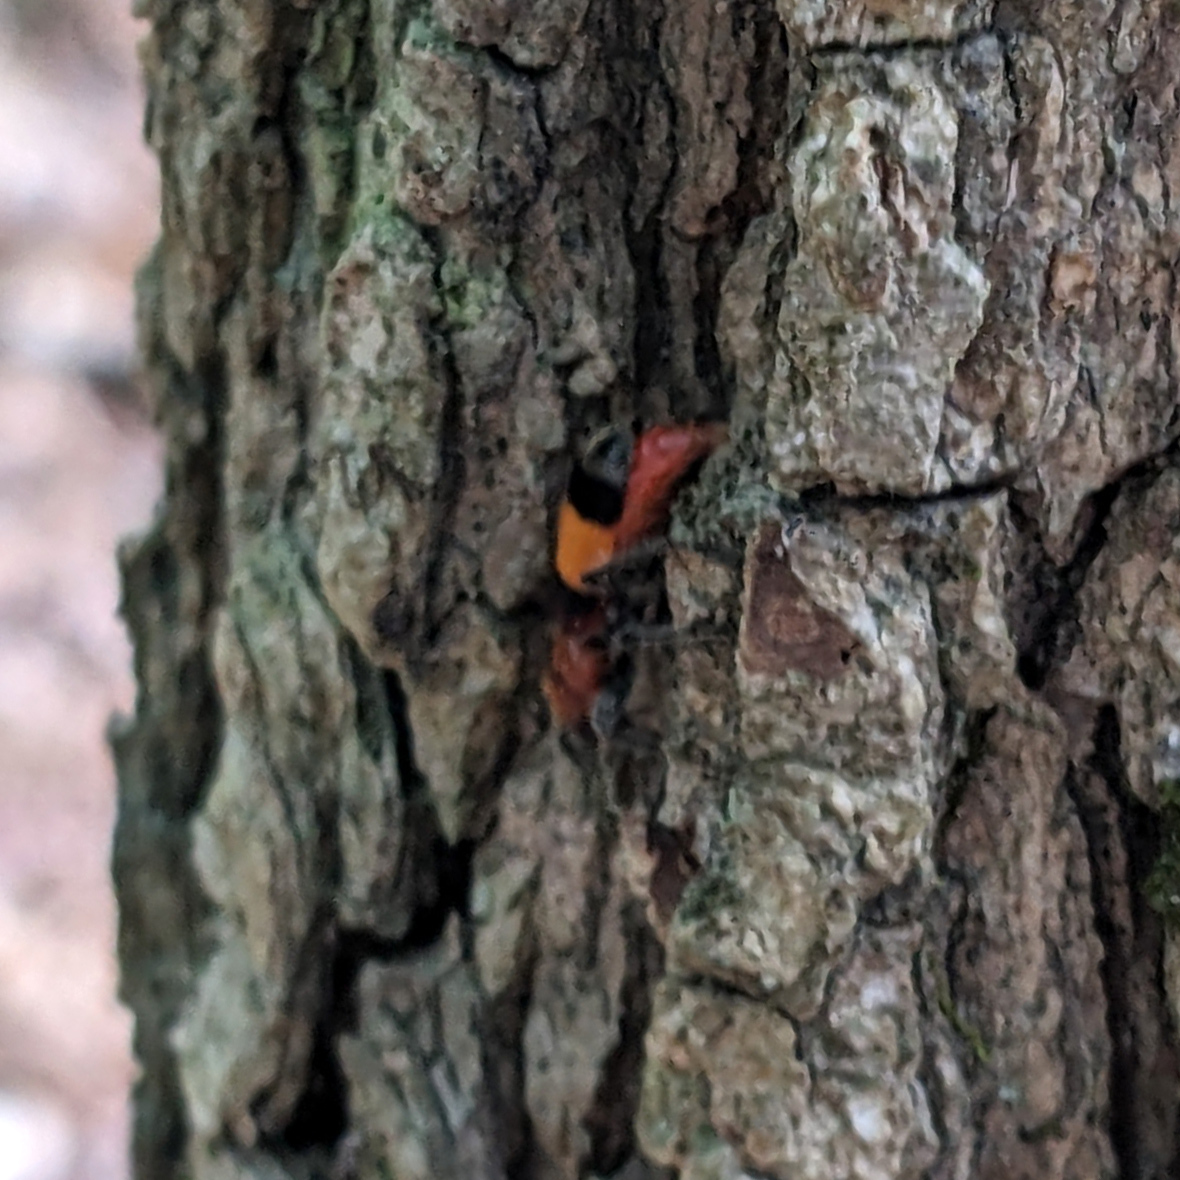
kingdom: Animalia
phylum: Arthropoda
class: Insecta
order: Coleoptera
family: Cleridae
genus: Enoclerus
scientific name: Enoclerus ichneumoneus
